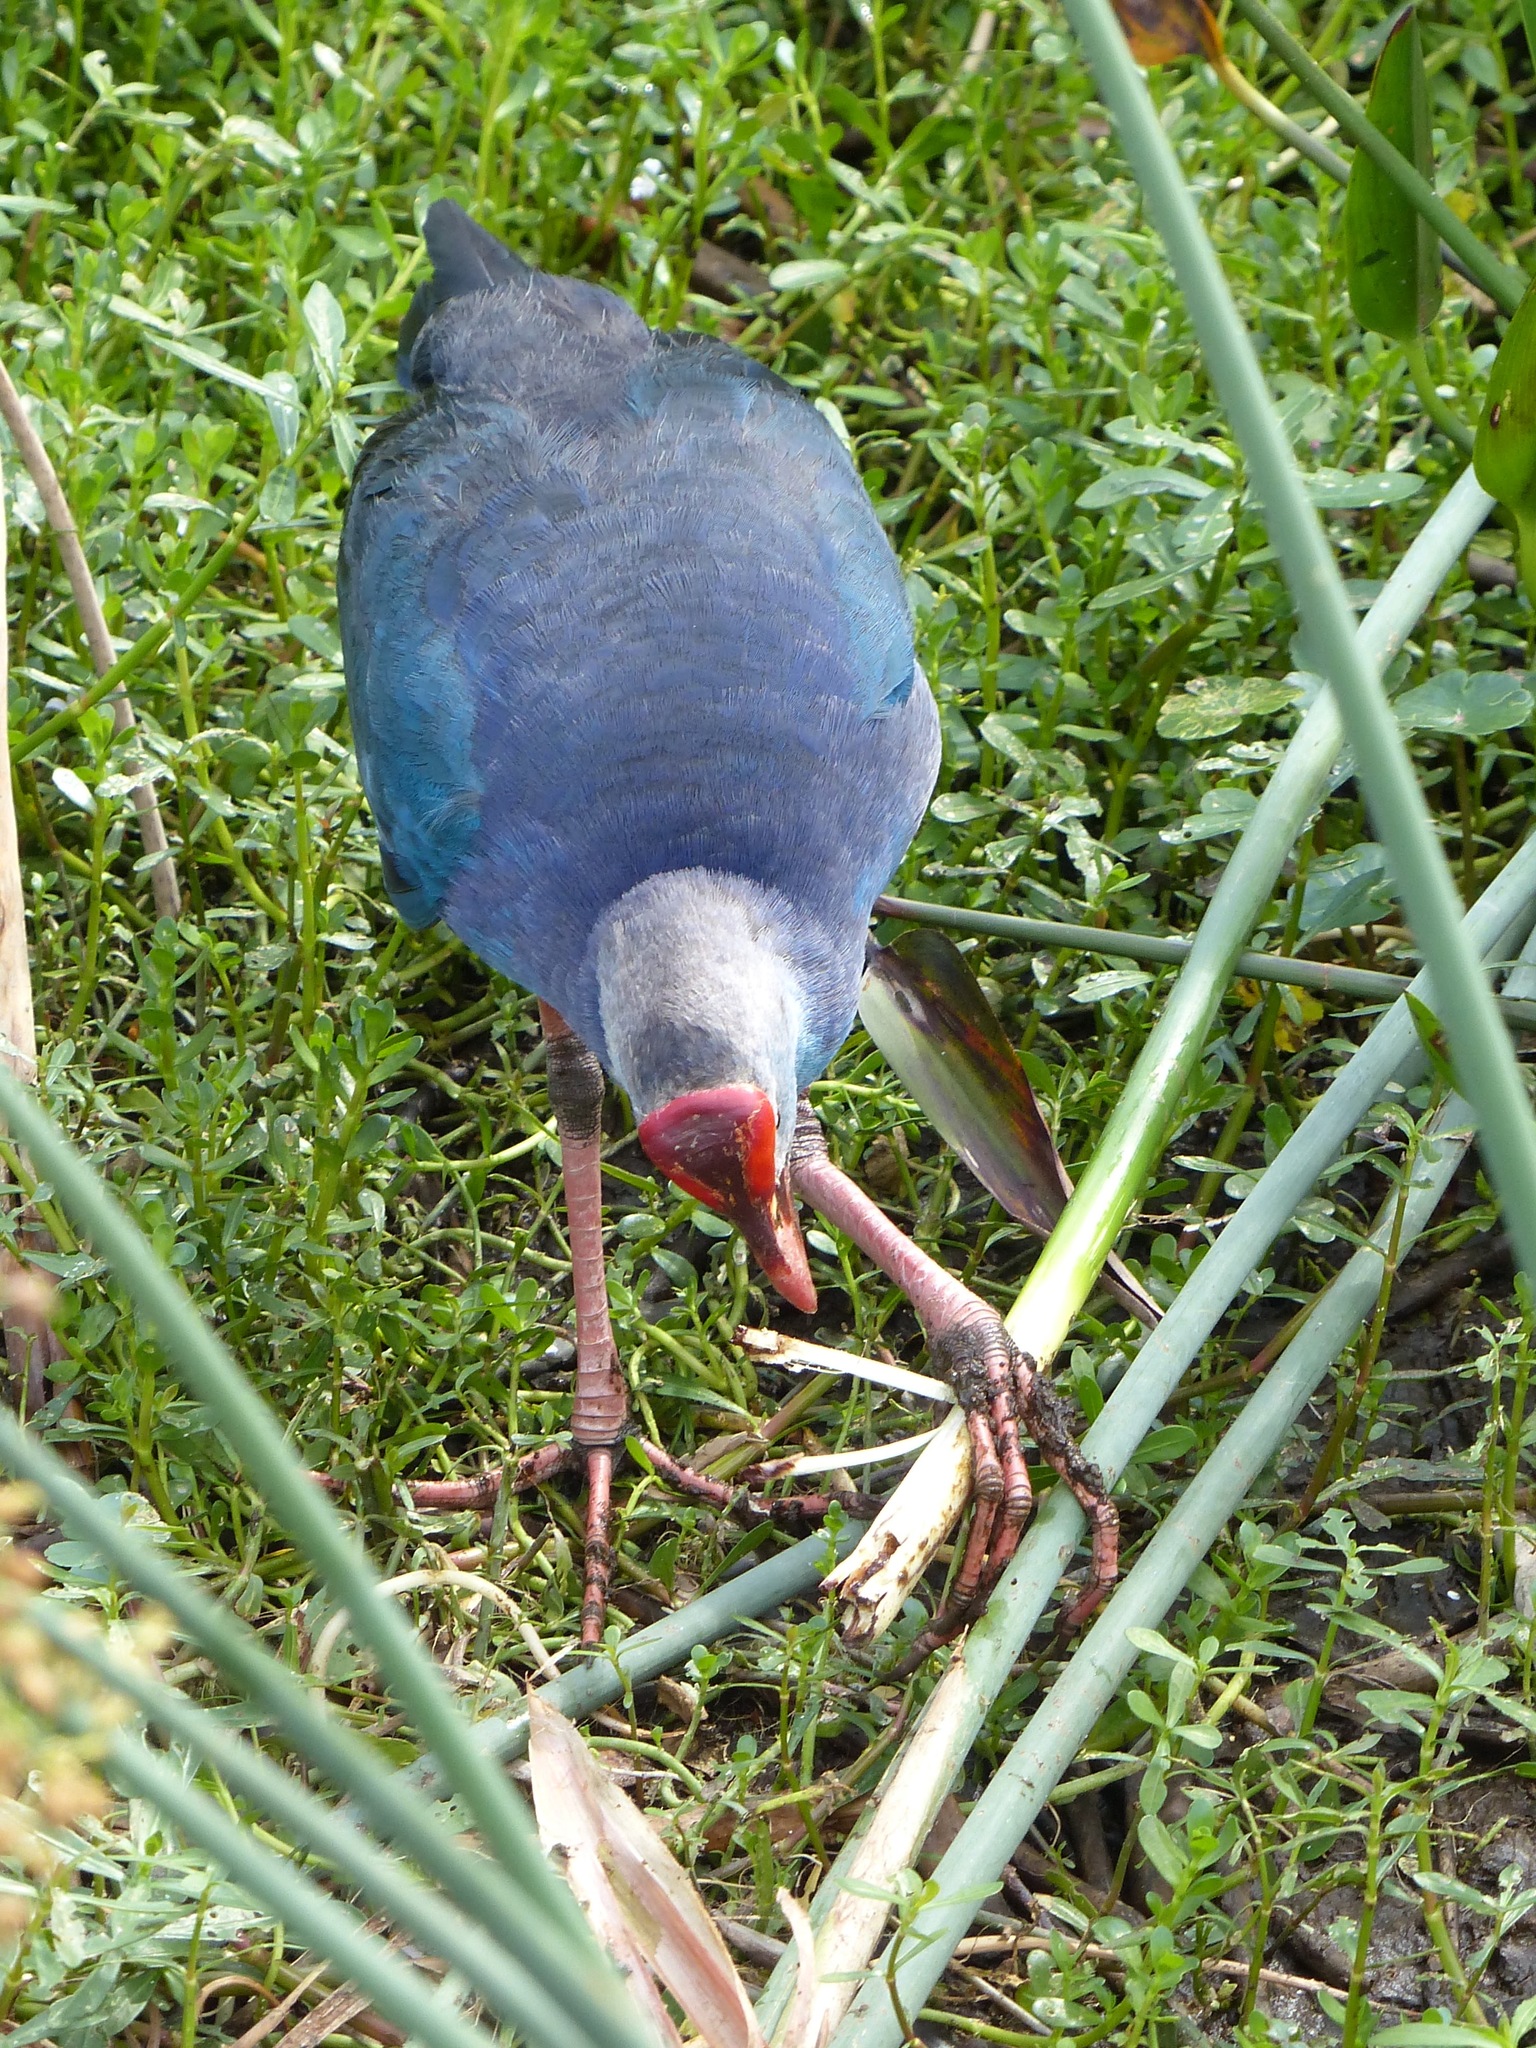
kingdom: Animalia
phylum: Chordata
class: Aves
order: Gruiformes
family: Rallidae
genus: Porphyrio
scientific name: Porphyrio porphyrio
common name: Purple swamphen
